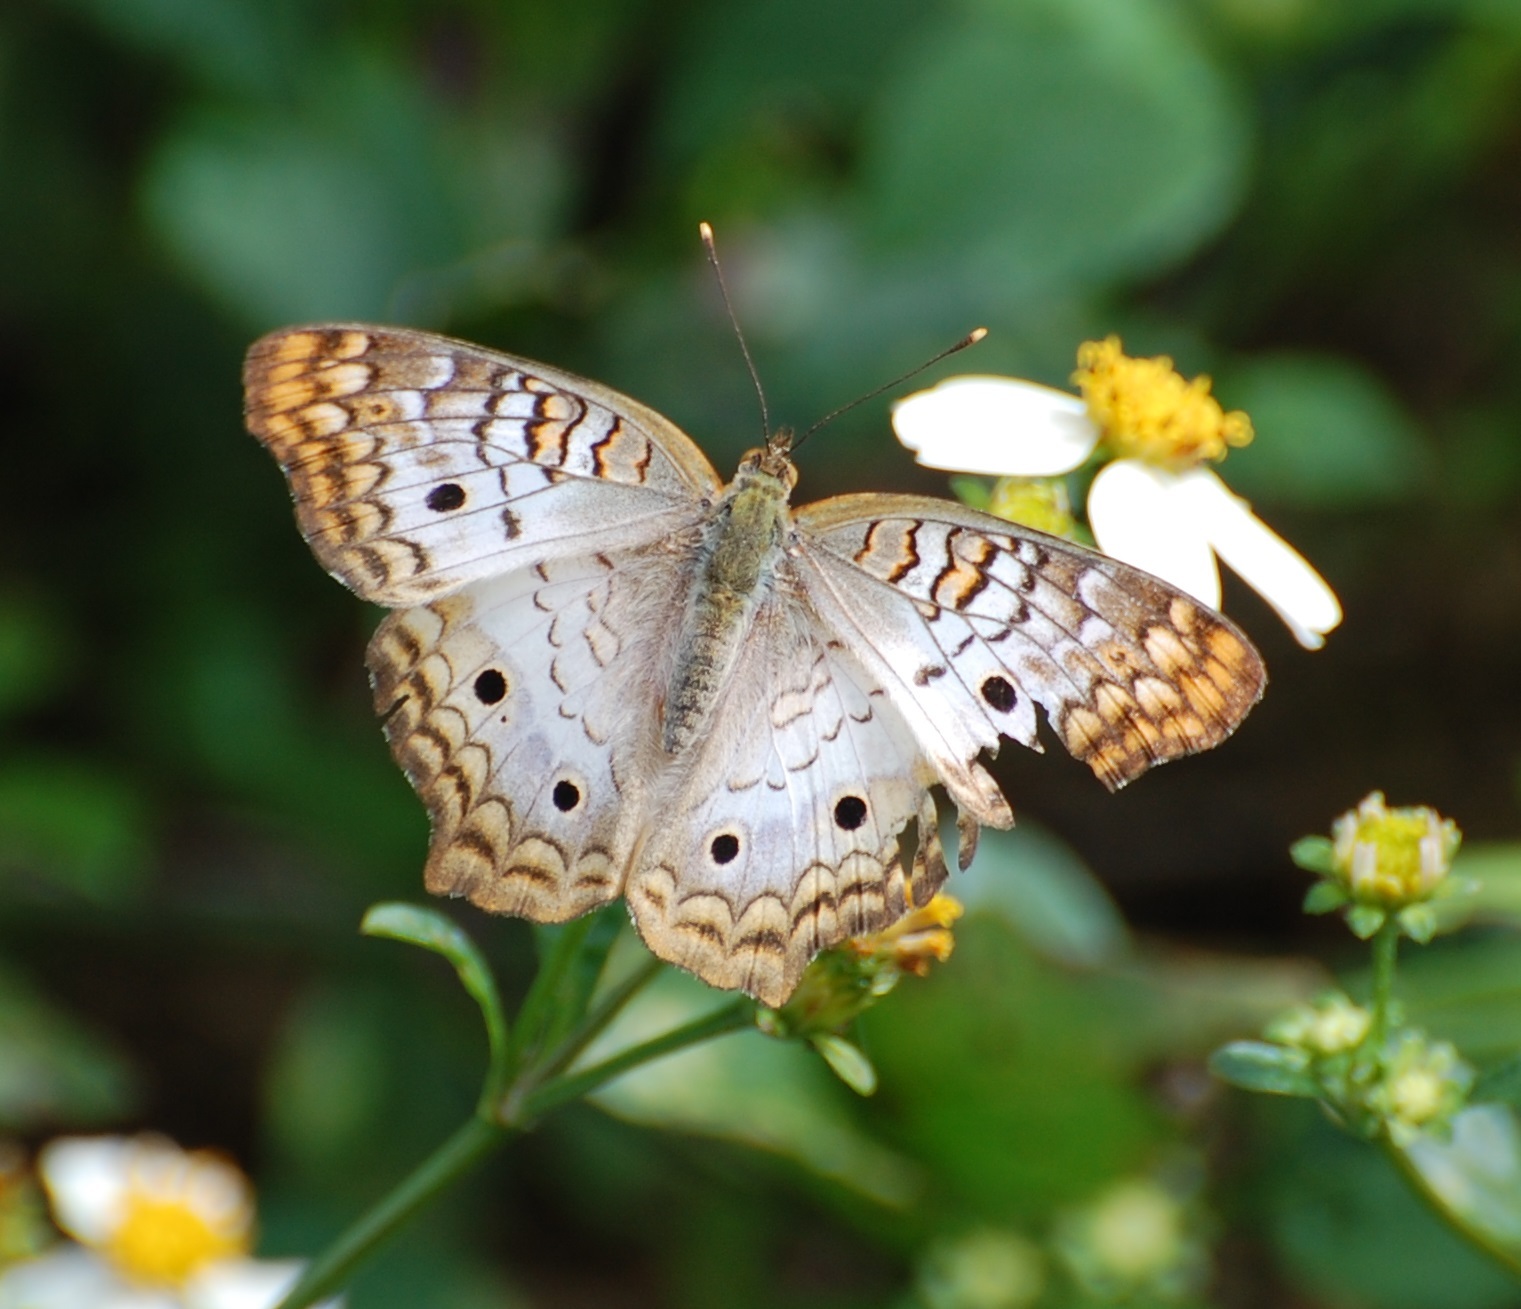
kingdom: Animalia
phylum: Arthropoda
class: Insecta
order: Lepidoptera
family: Nymphalidae
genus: Anartia
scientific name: Anartia jatrophae
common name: White peacock
